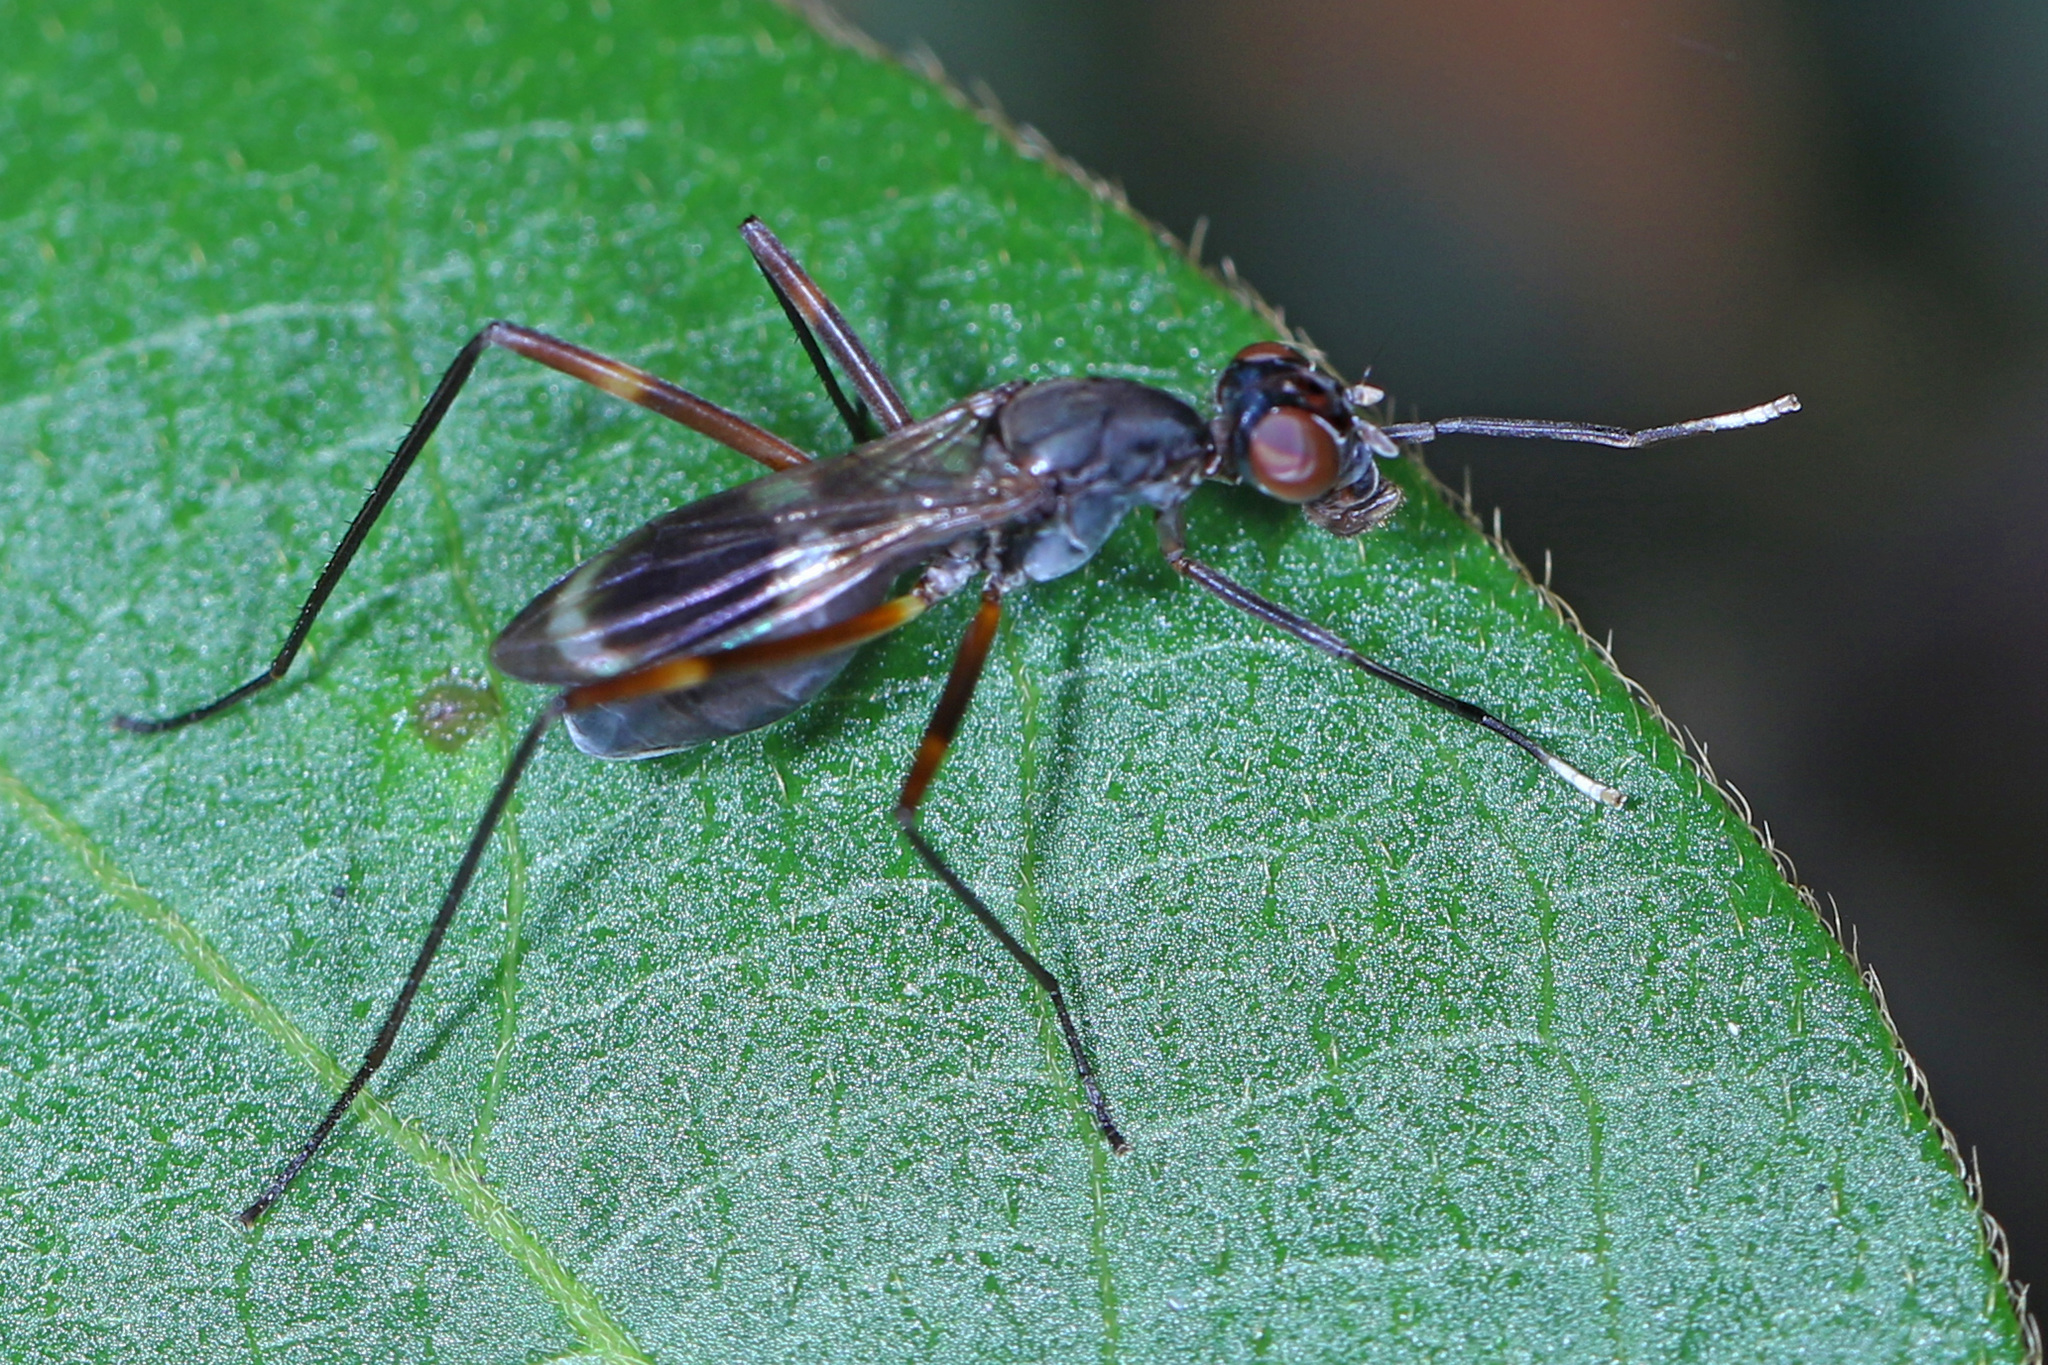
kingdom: Animalia
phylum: Arthropoda
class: Insecta
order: Diptera
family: Micropezidae
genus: Taeniaptera
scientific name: Taeniaptera trivittata
